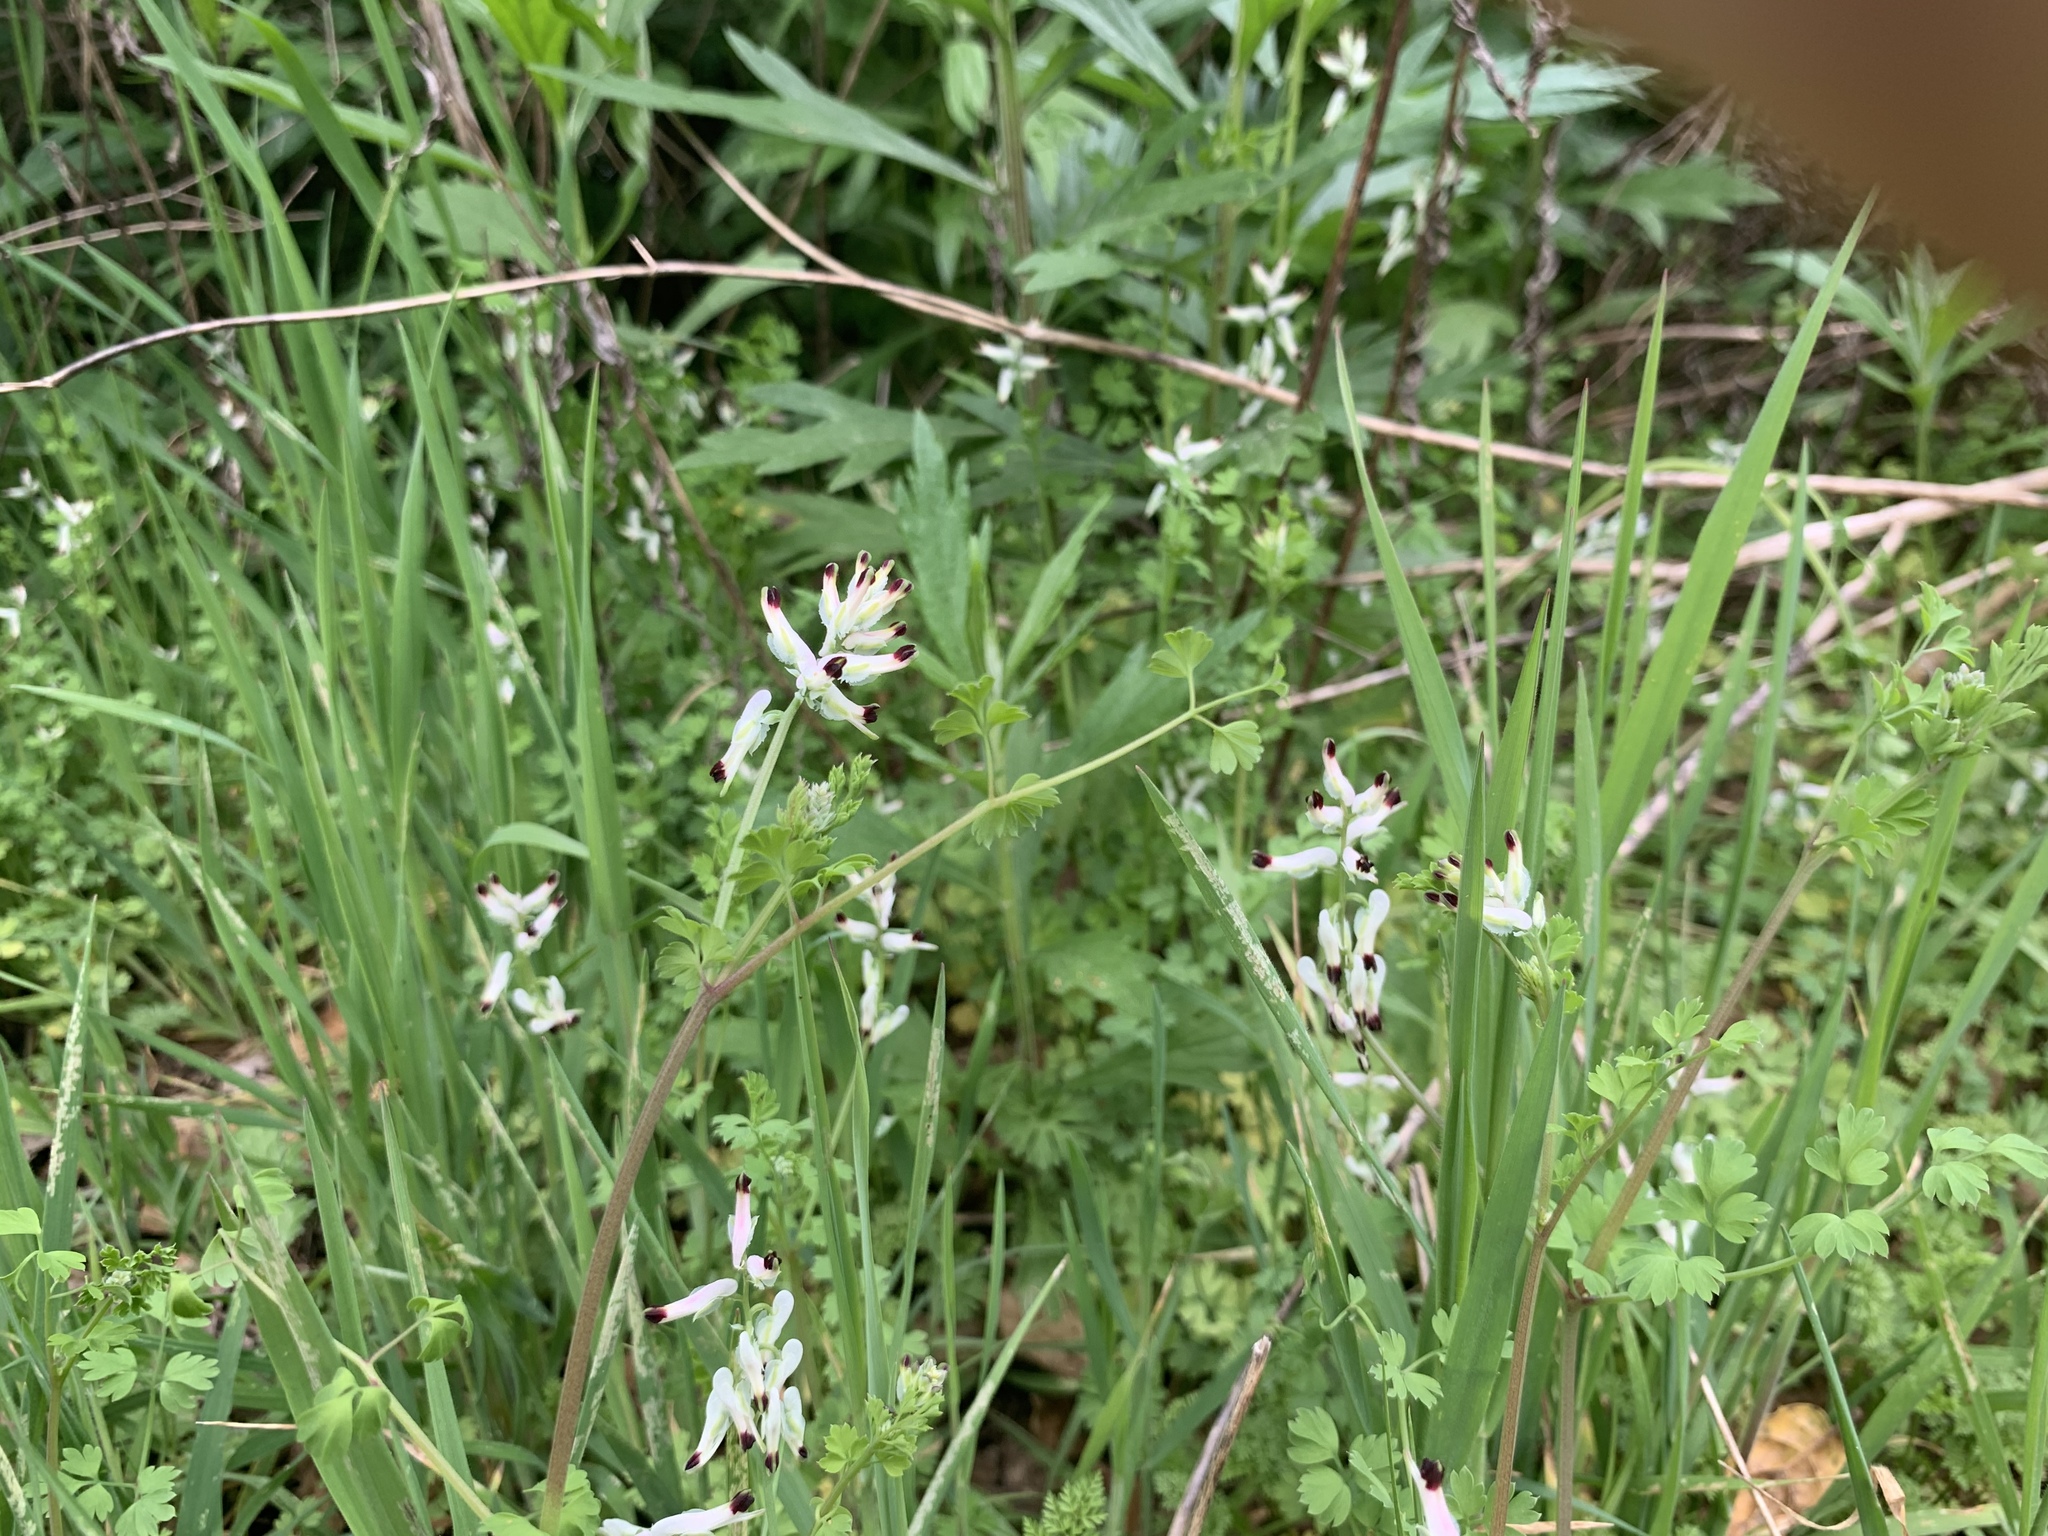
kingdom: Plantae
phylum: Tracheophyta
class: Magnoliopsida
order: Ranunculales
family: Papaveraceae
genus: Fumaria
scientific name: Fumaria capreolata
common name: White ramping-fumitory
